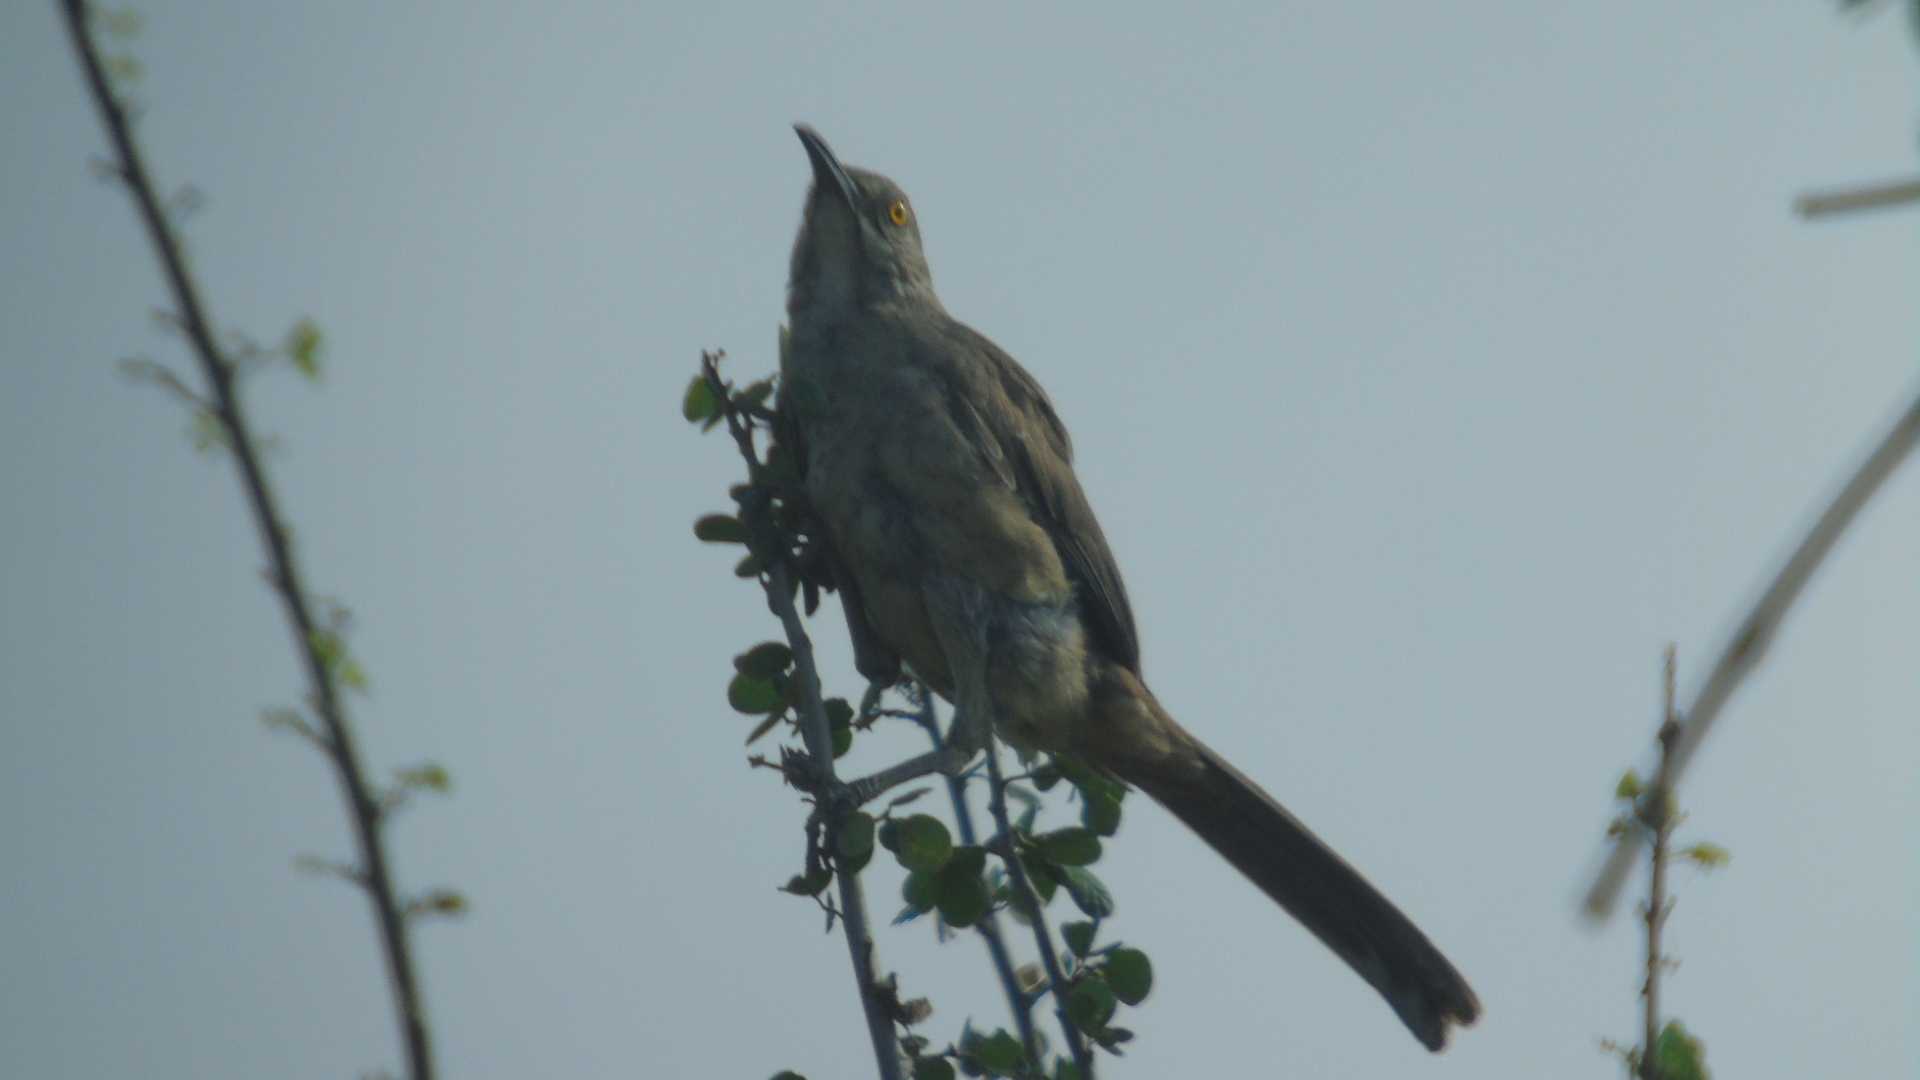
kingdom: Animalia
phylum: Chordata
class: Aves
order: Passeriformes
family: Mimidae
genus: Toxostoma
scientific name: Toxostoma curvirostre
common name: Curve-billed thrasher
